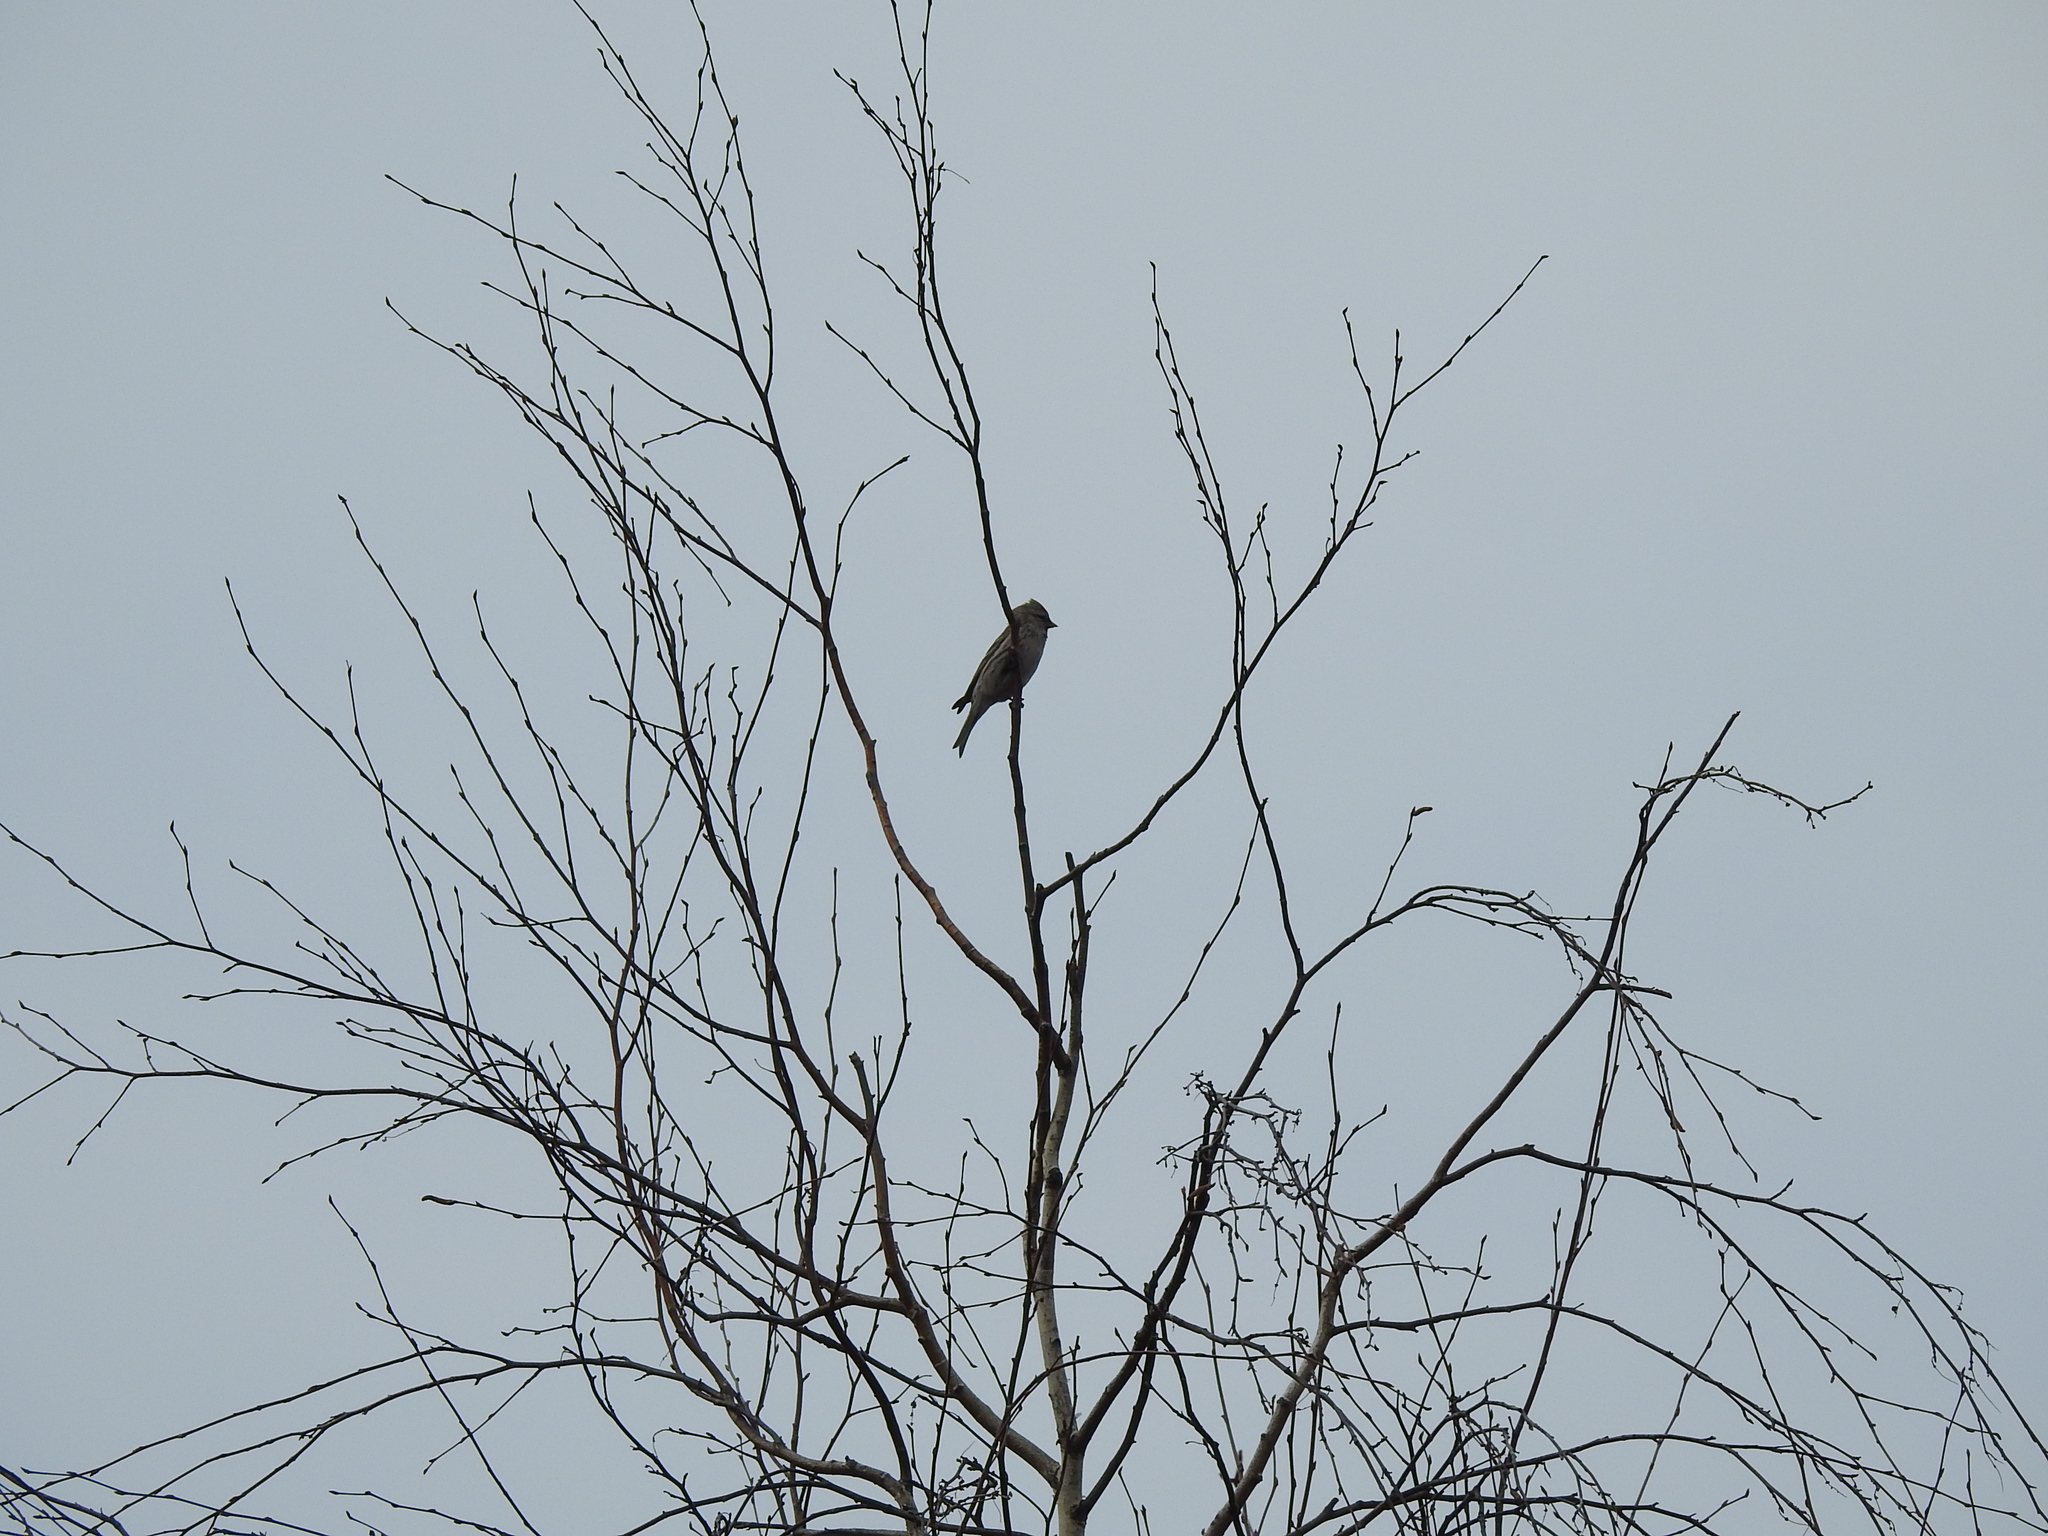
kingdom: Animalia
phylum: Chordata
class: Aves
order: Passeriformes
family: Fringillidae
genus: Acanthis
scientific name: Acanthis flammea
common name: Common redpoll
